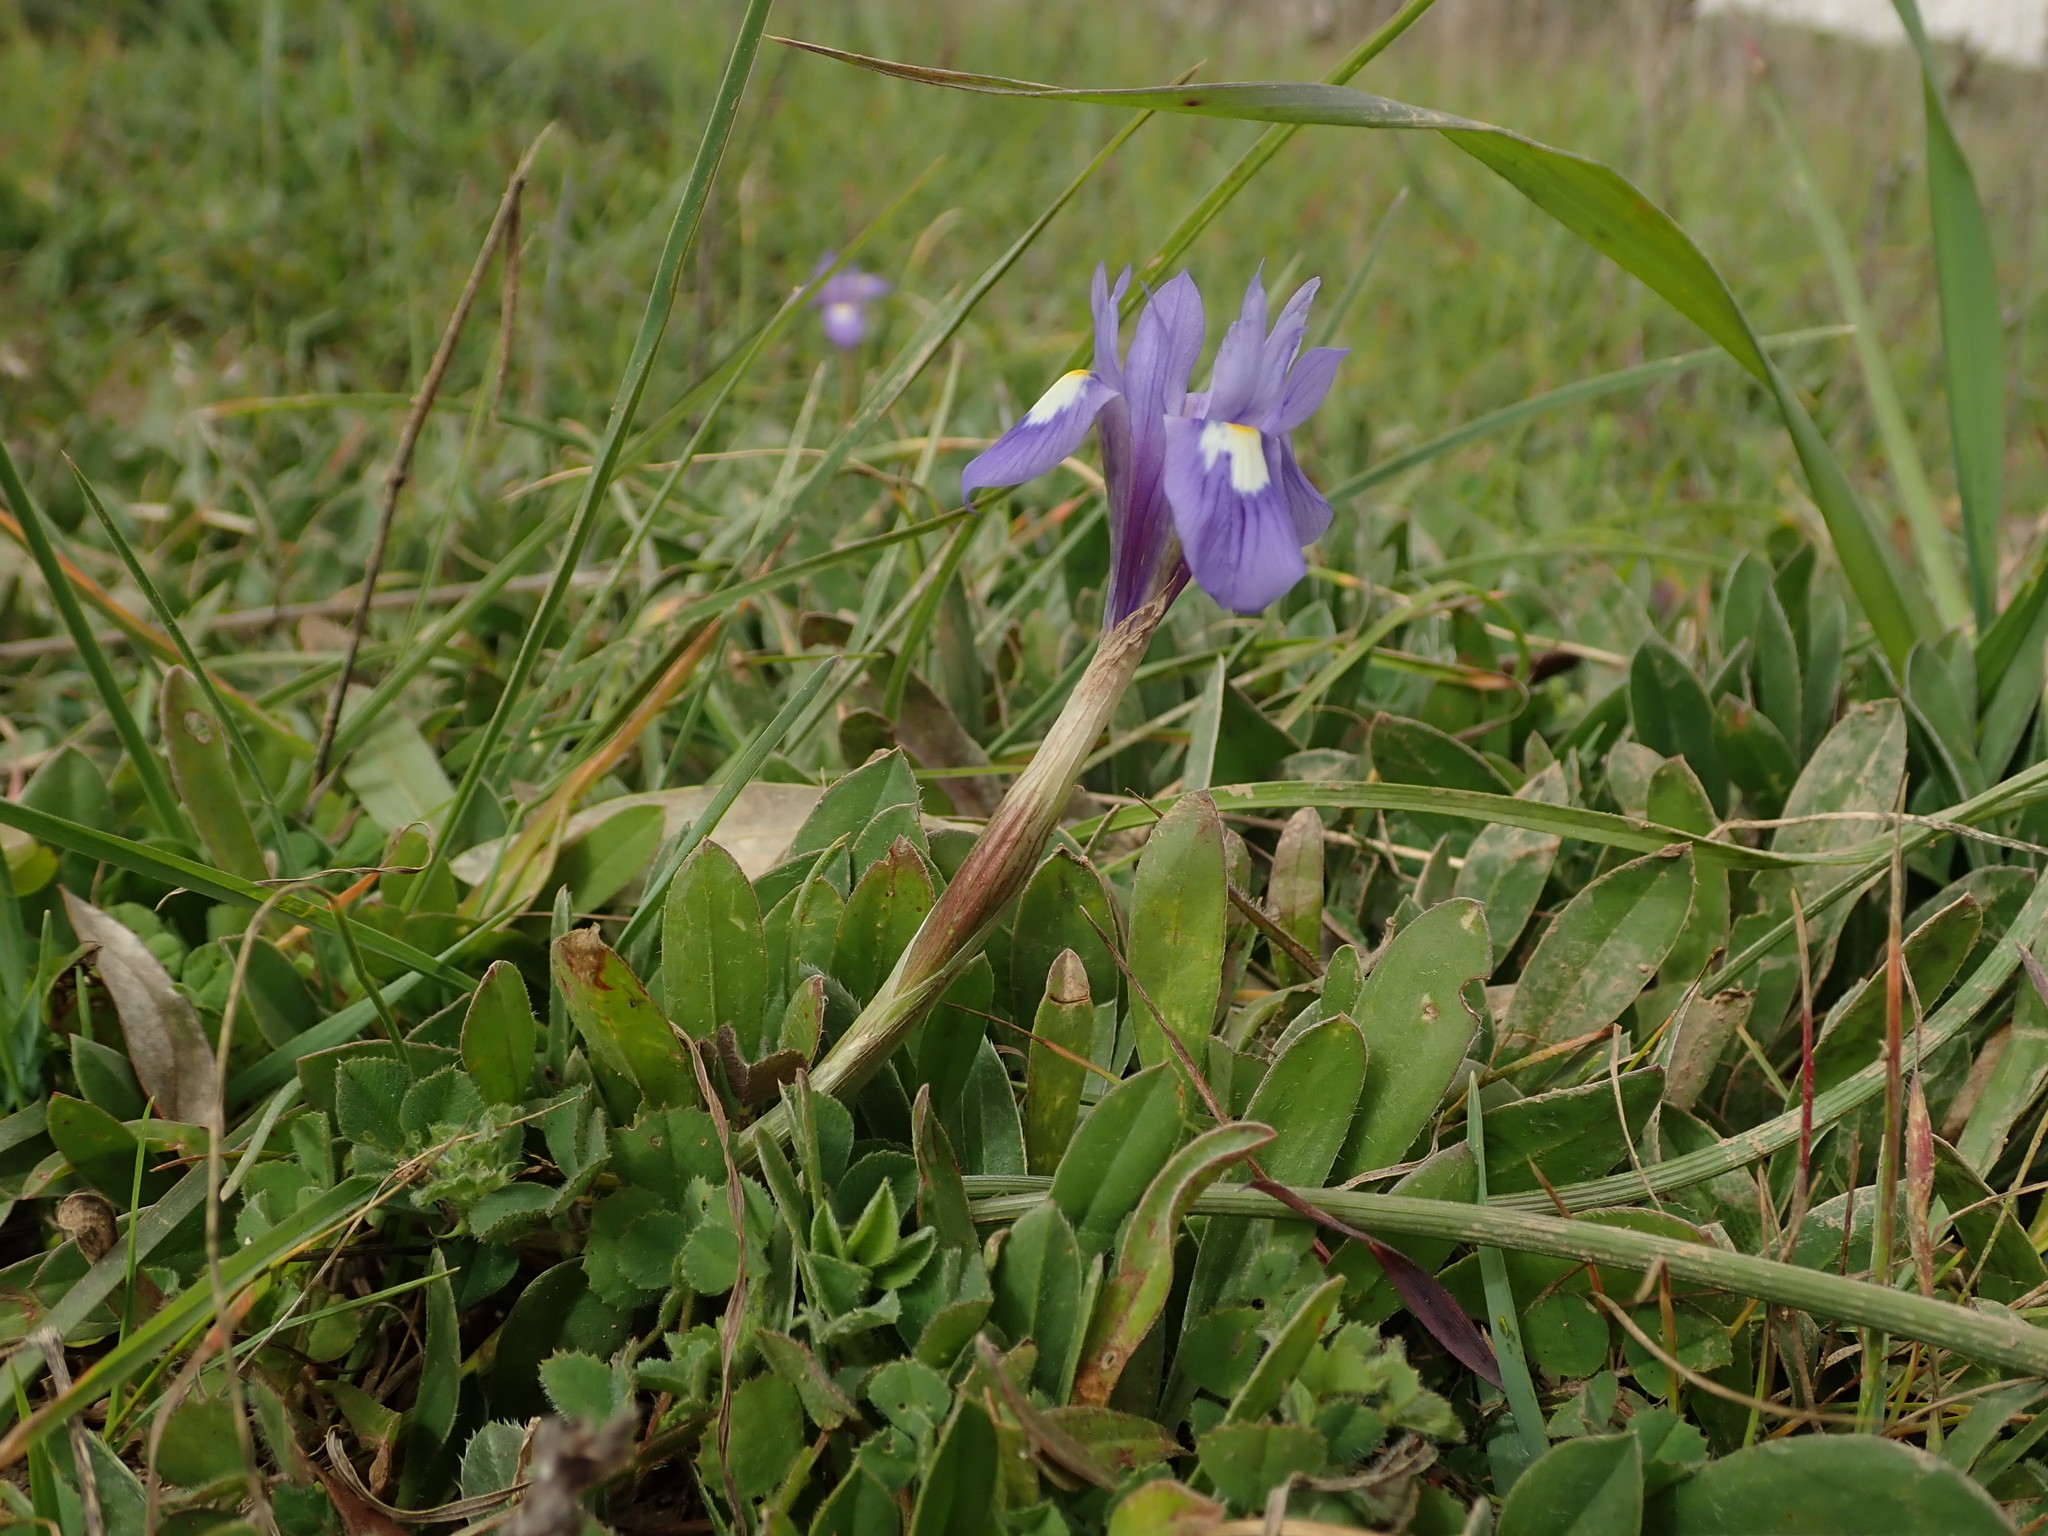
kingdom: Plantae
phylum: Tracheophyta
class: Liliopsida
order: Asparagales
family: Iridaceae
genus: Moraea
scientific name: Moraea sisyrinchium
